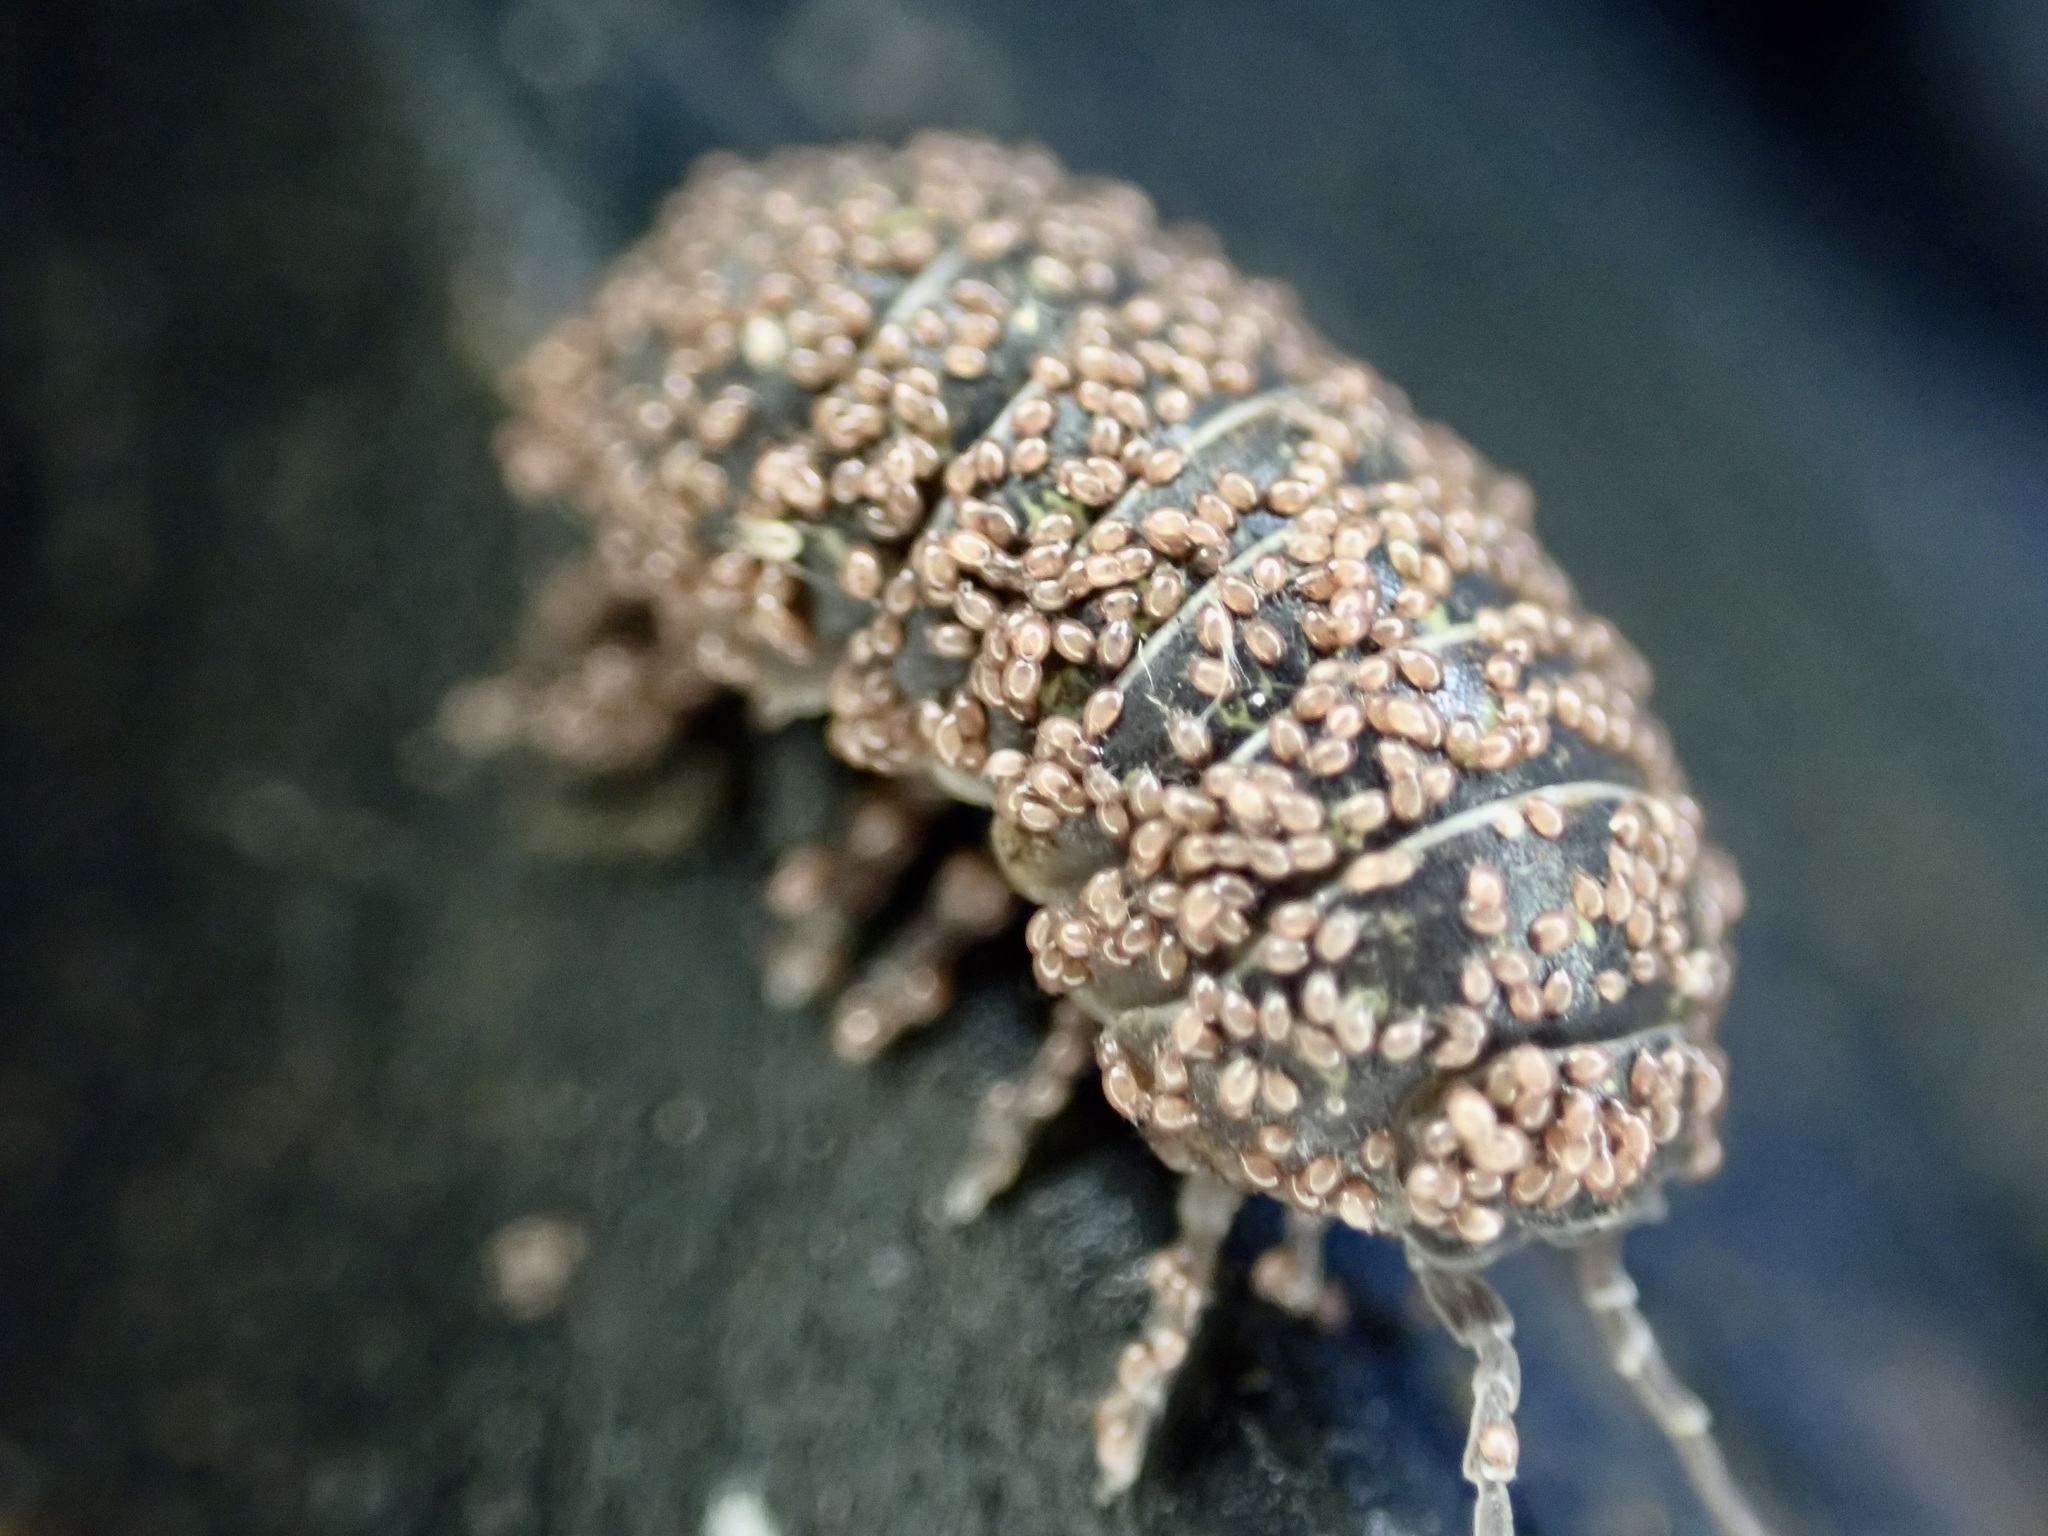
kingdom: Animalia
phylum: Arthropoda
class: Malacostraca
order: Isopoda
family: Armadillidiidae
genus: Armadillidium
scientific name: Armadillidium vulgare
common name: Common pill woodlouse
